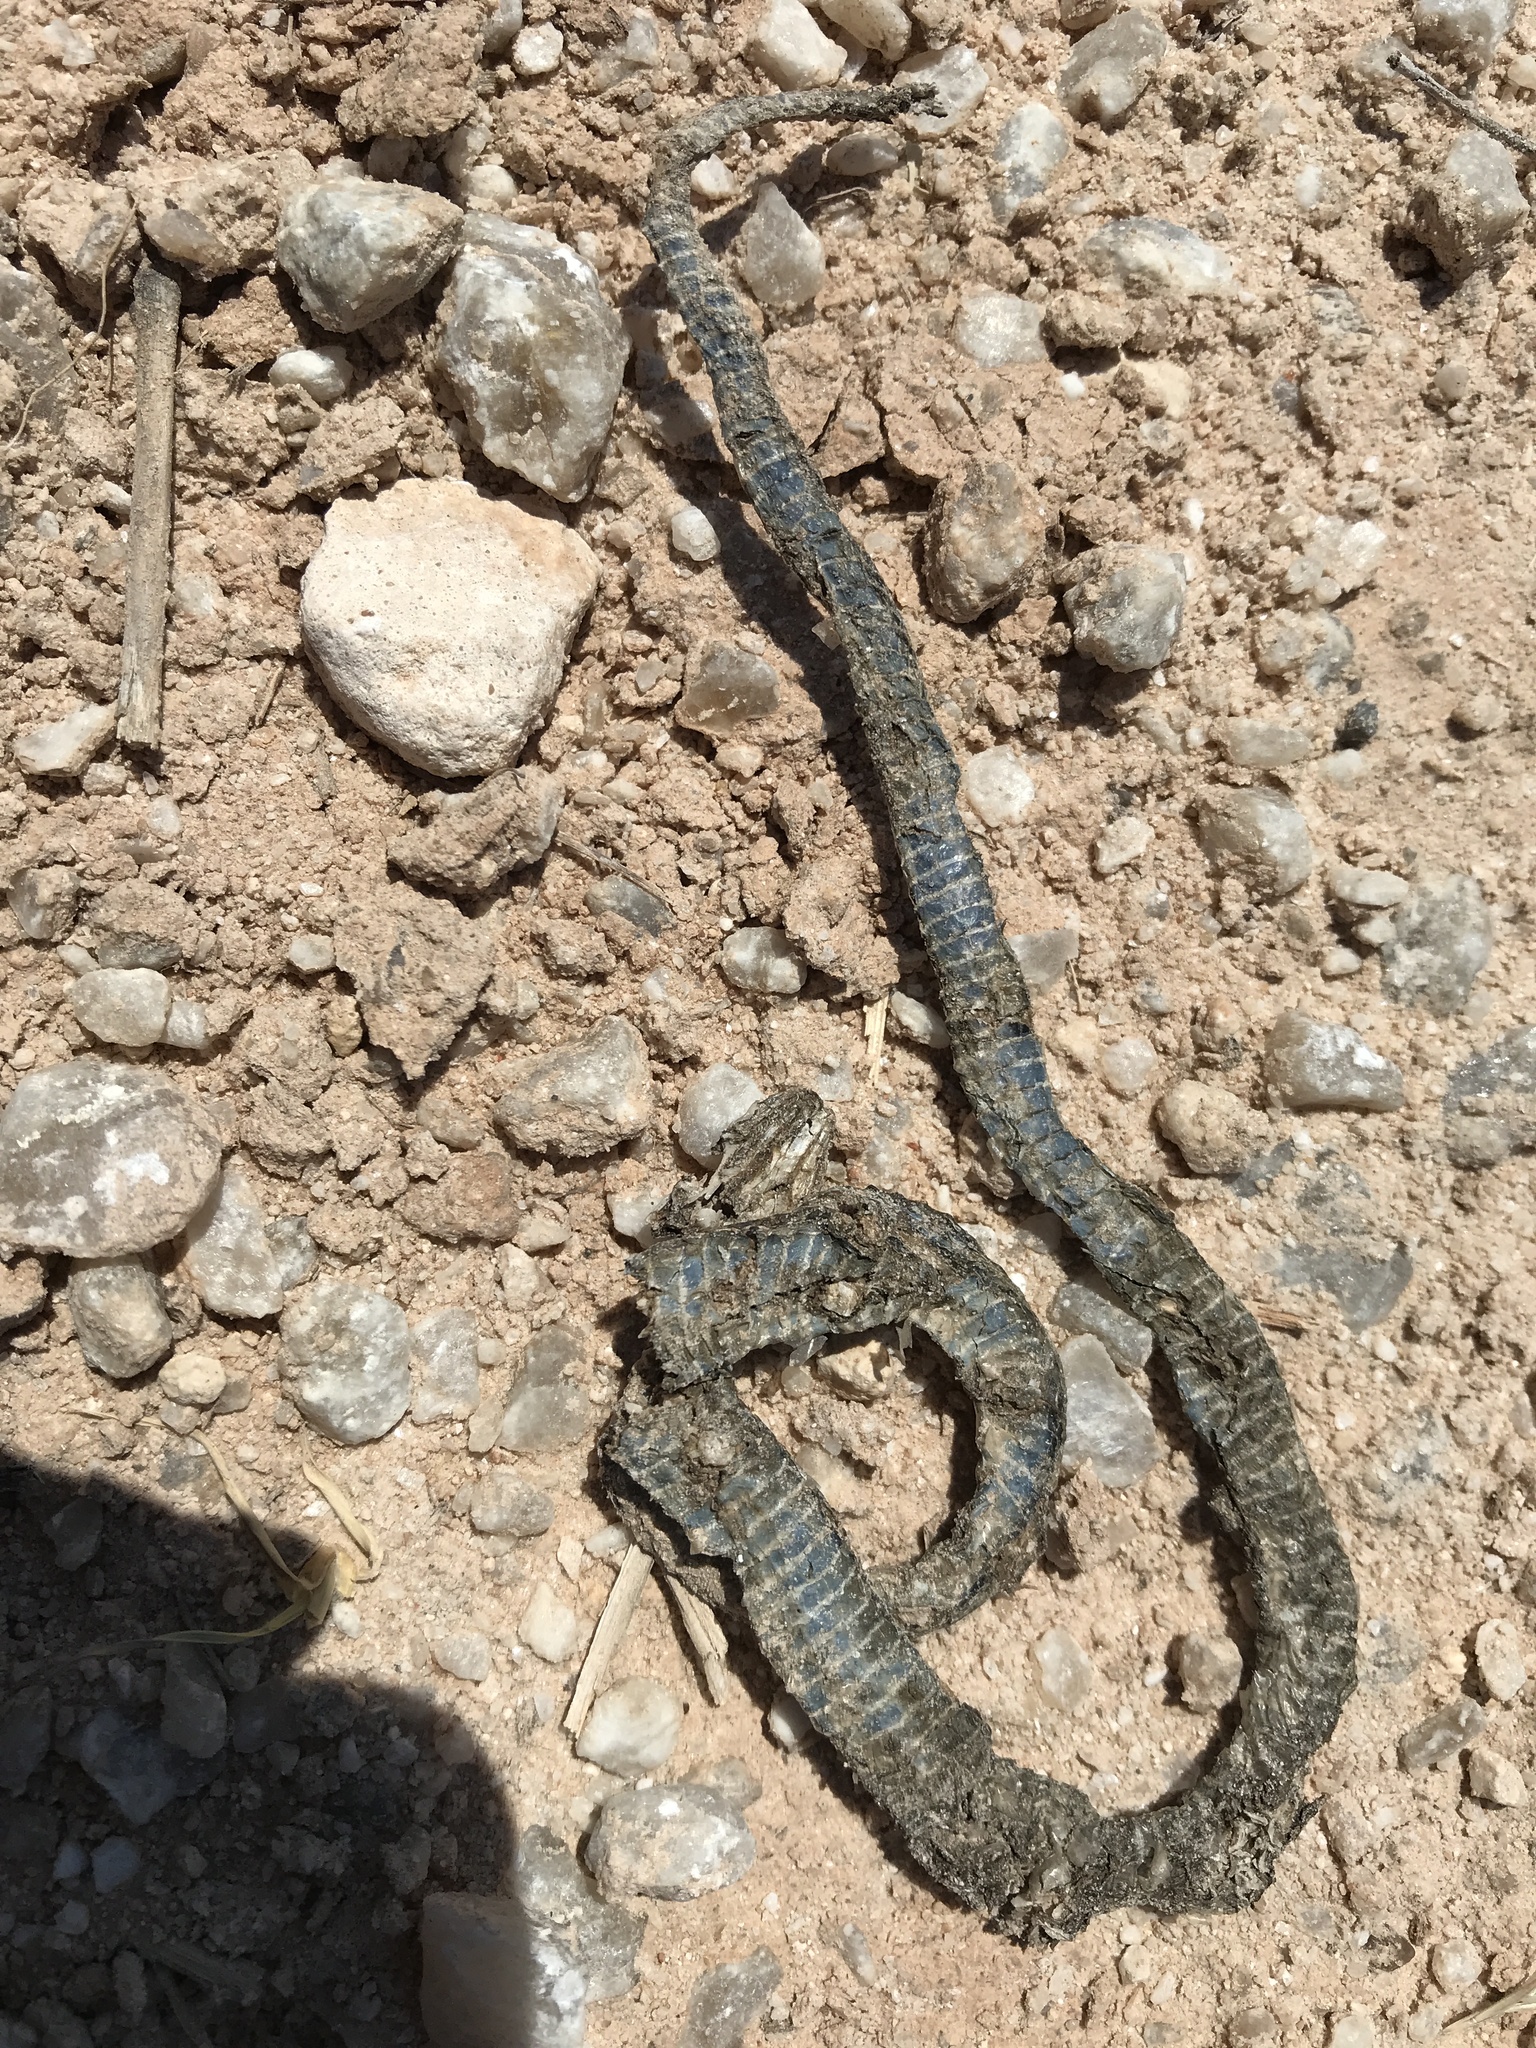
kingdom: Animalia
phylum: Chordata
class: Squamata
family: Colubridae
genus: Thamnophis
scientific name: Thamnophis
